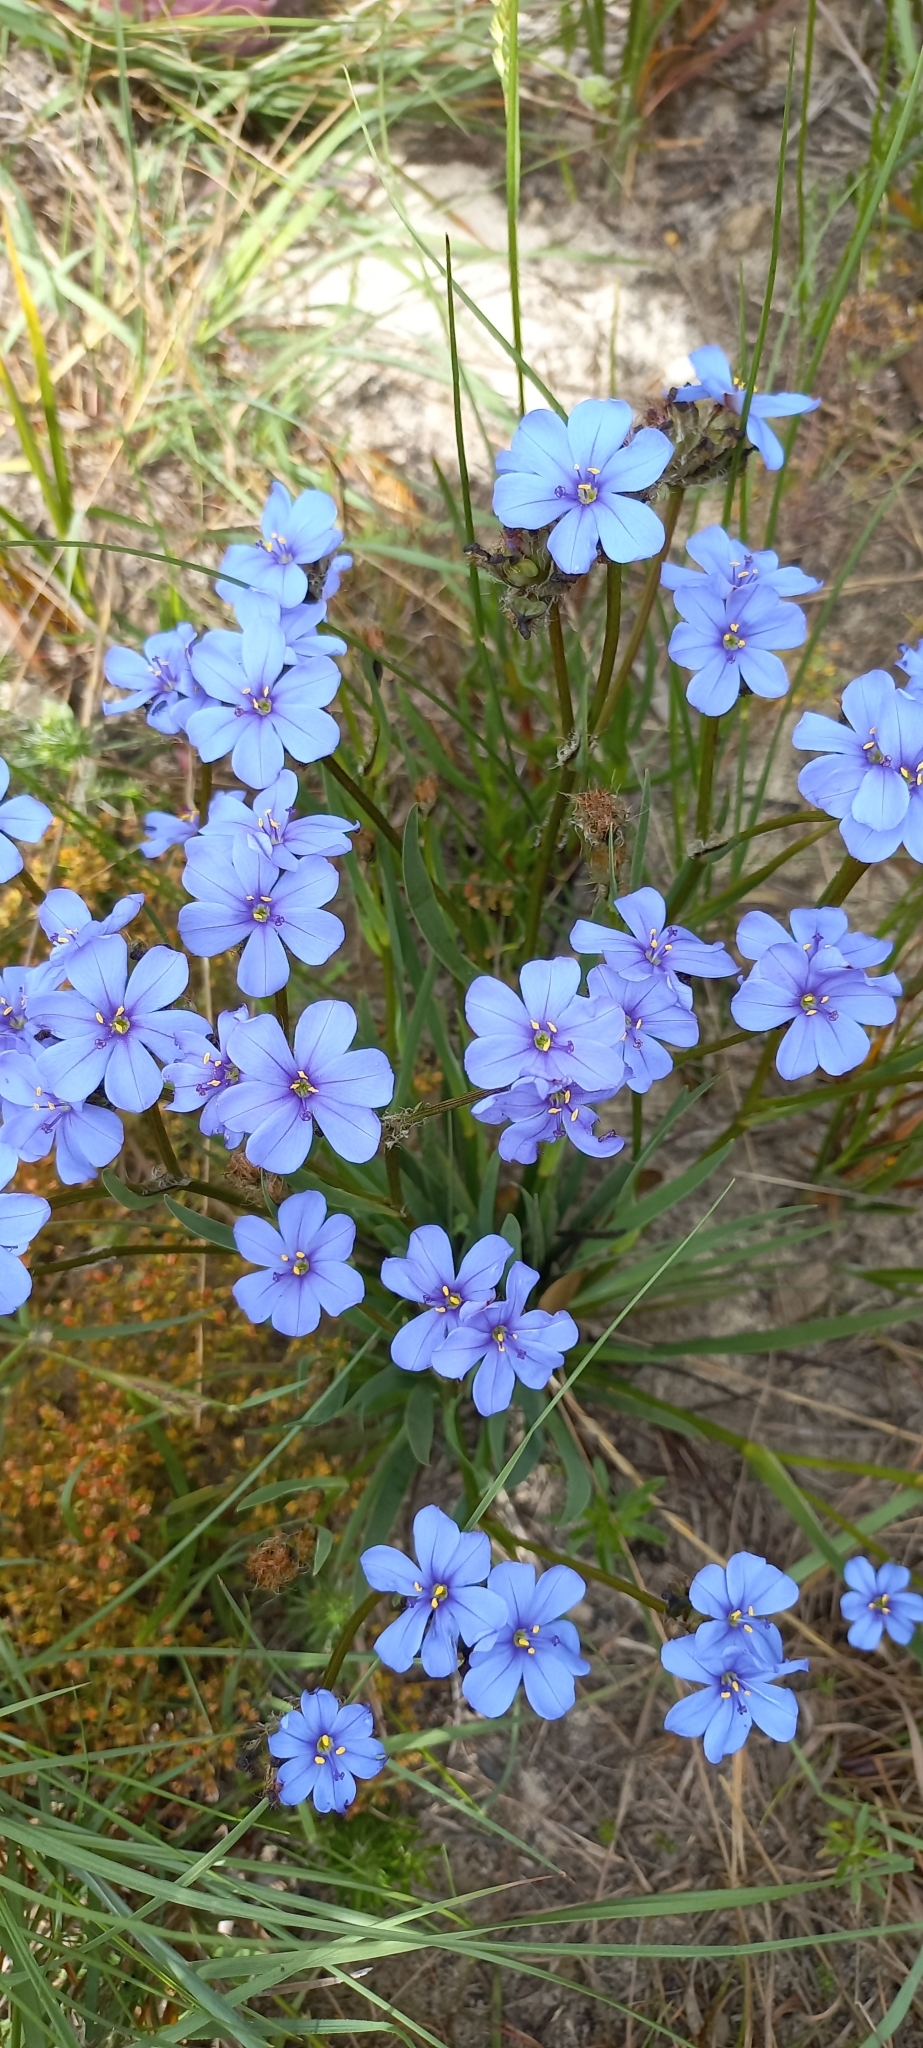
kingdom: Plantae
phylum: Tracheophyta
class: Liliopsida
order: Asparagales
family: Iridaceae
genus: Aristea
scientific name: Aristea africana
